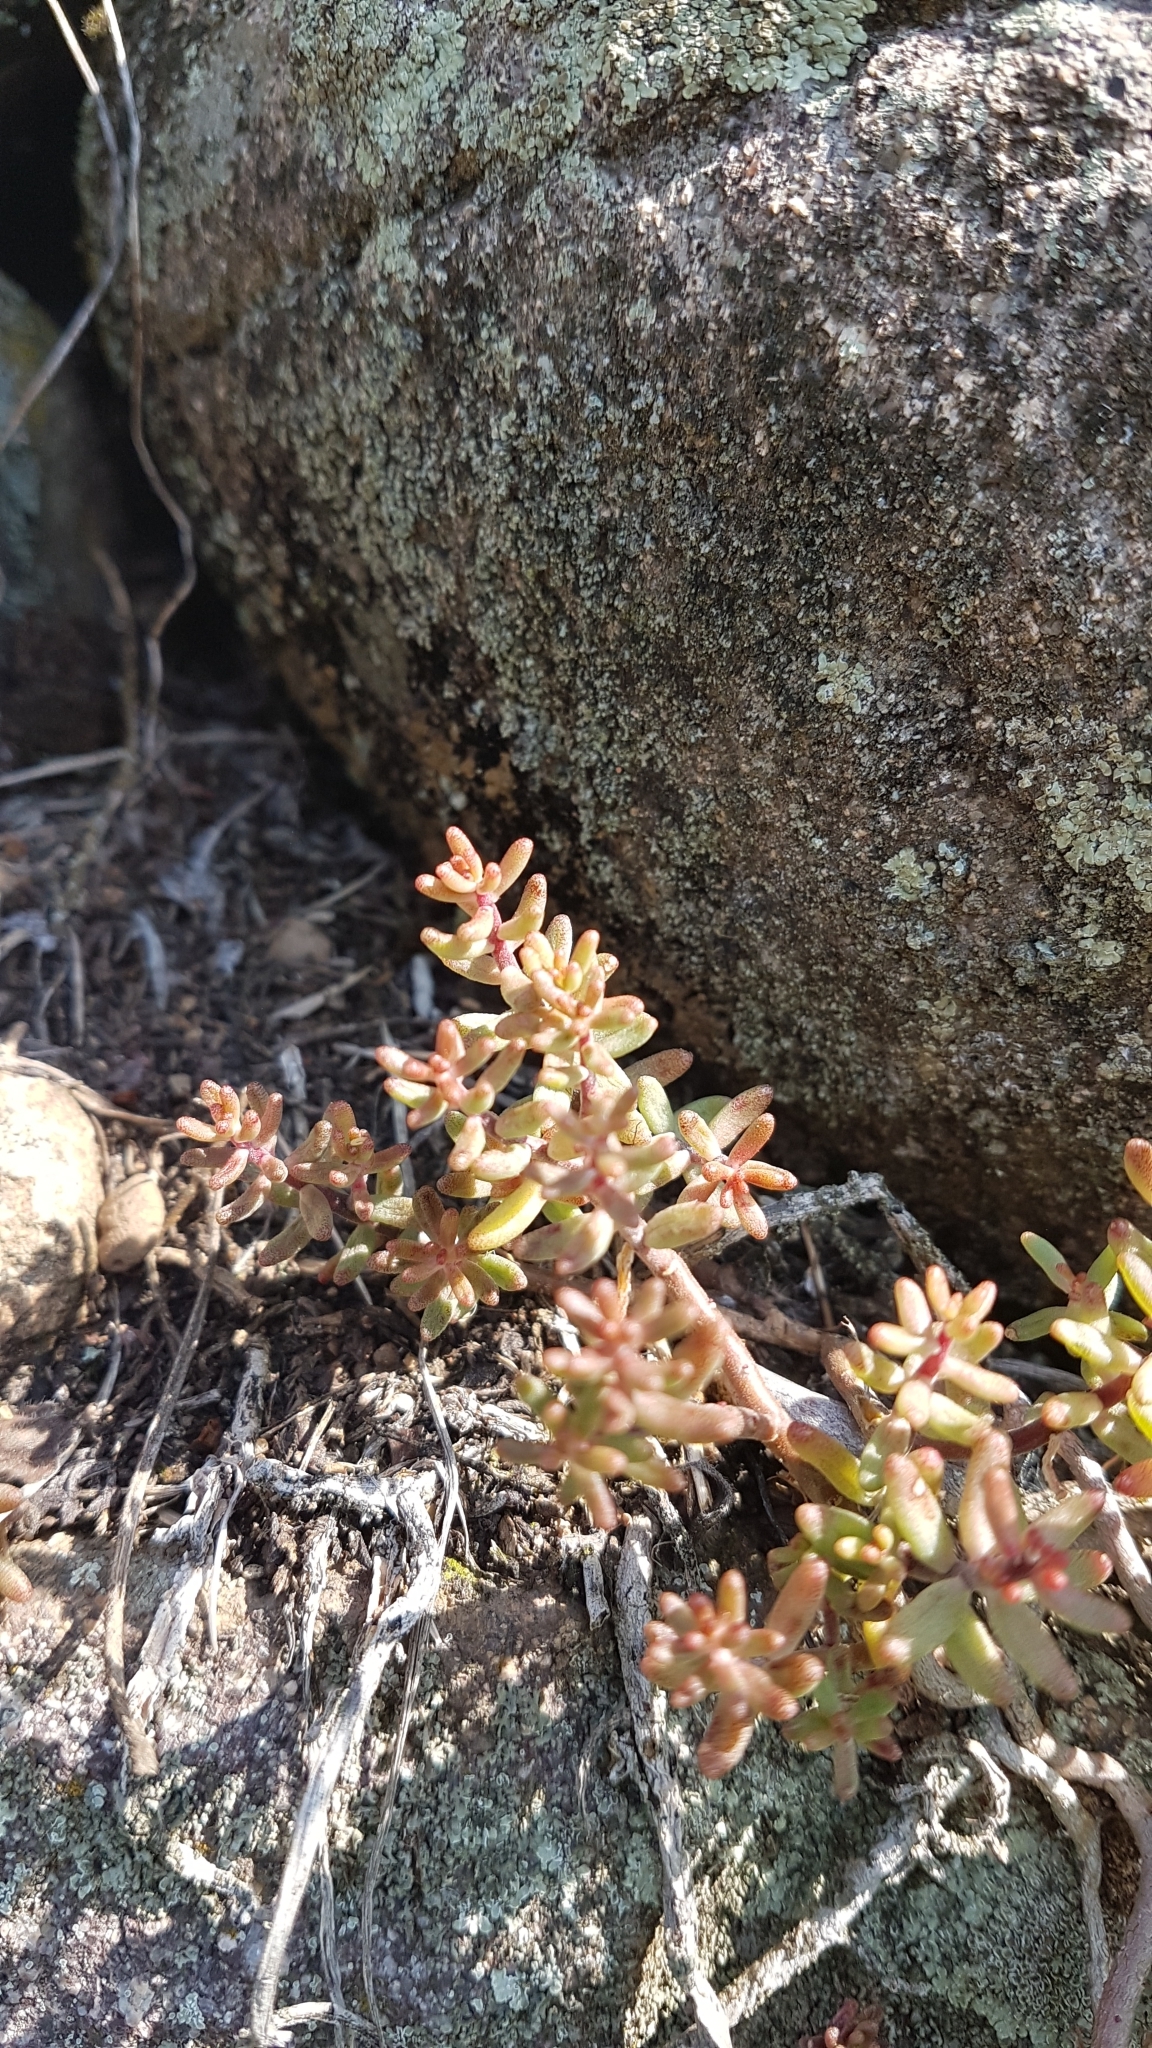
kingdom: Plantae
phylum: Tracheophyta
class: Magnoliopsida
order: Saxifragales
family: Crassulaceae
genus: Sedum
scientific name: Sedum album
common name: White stonecrop
